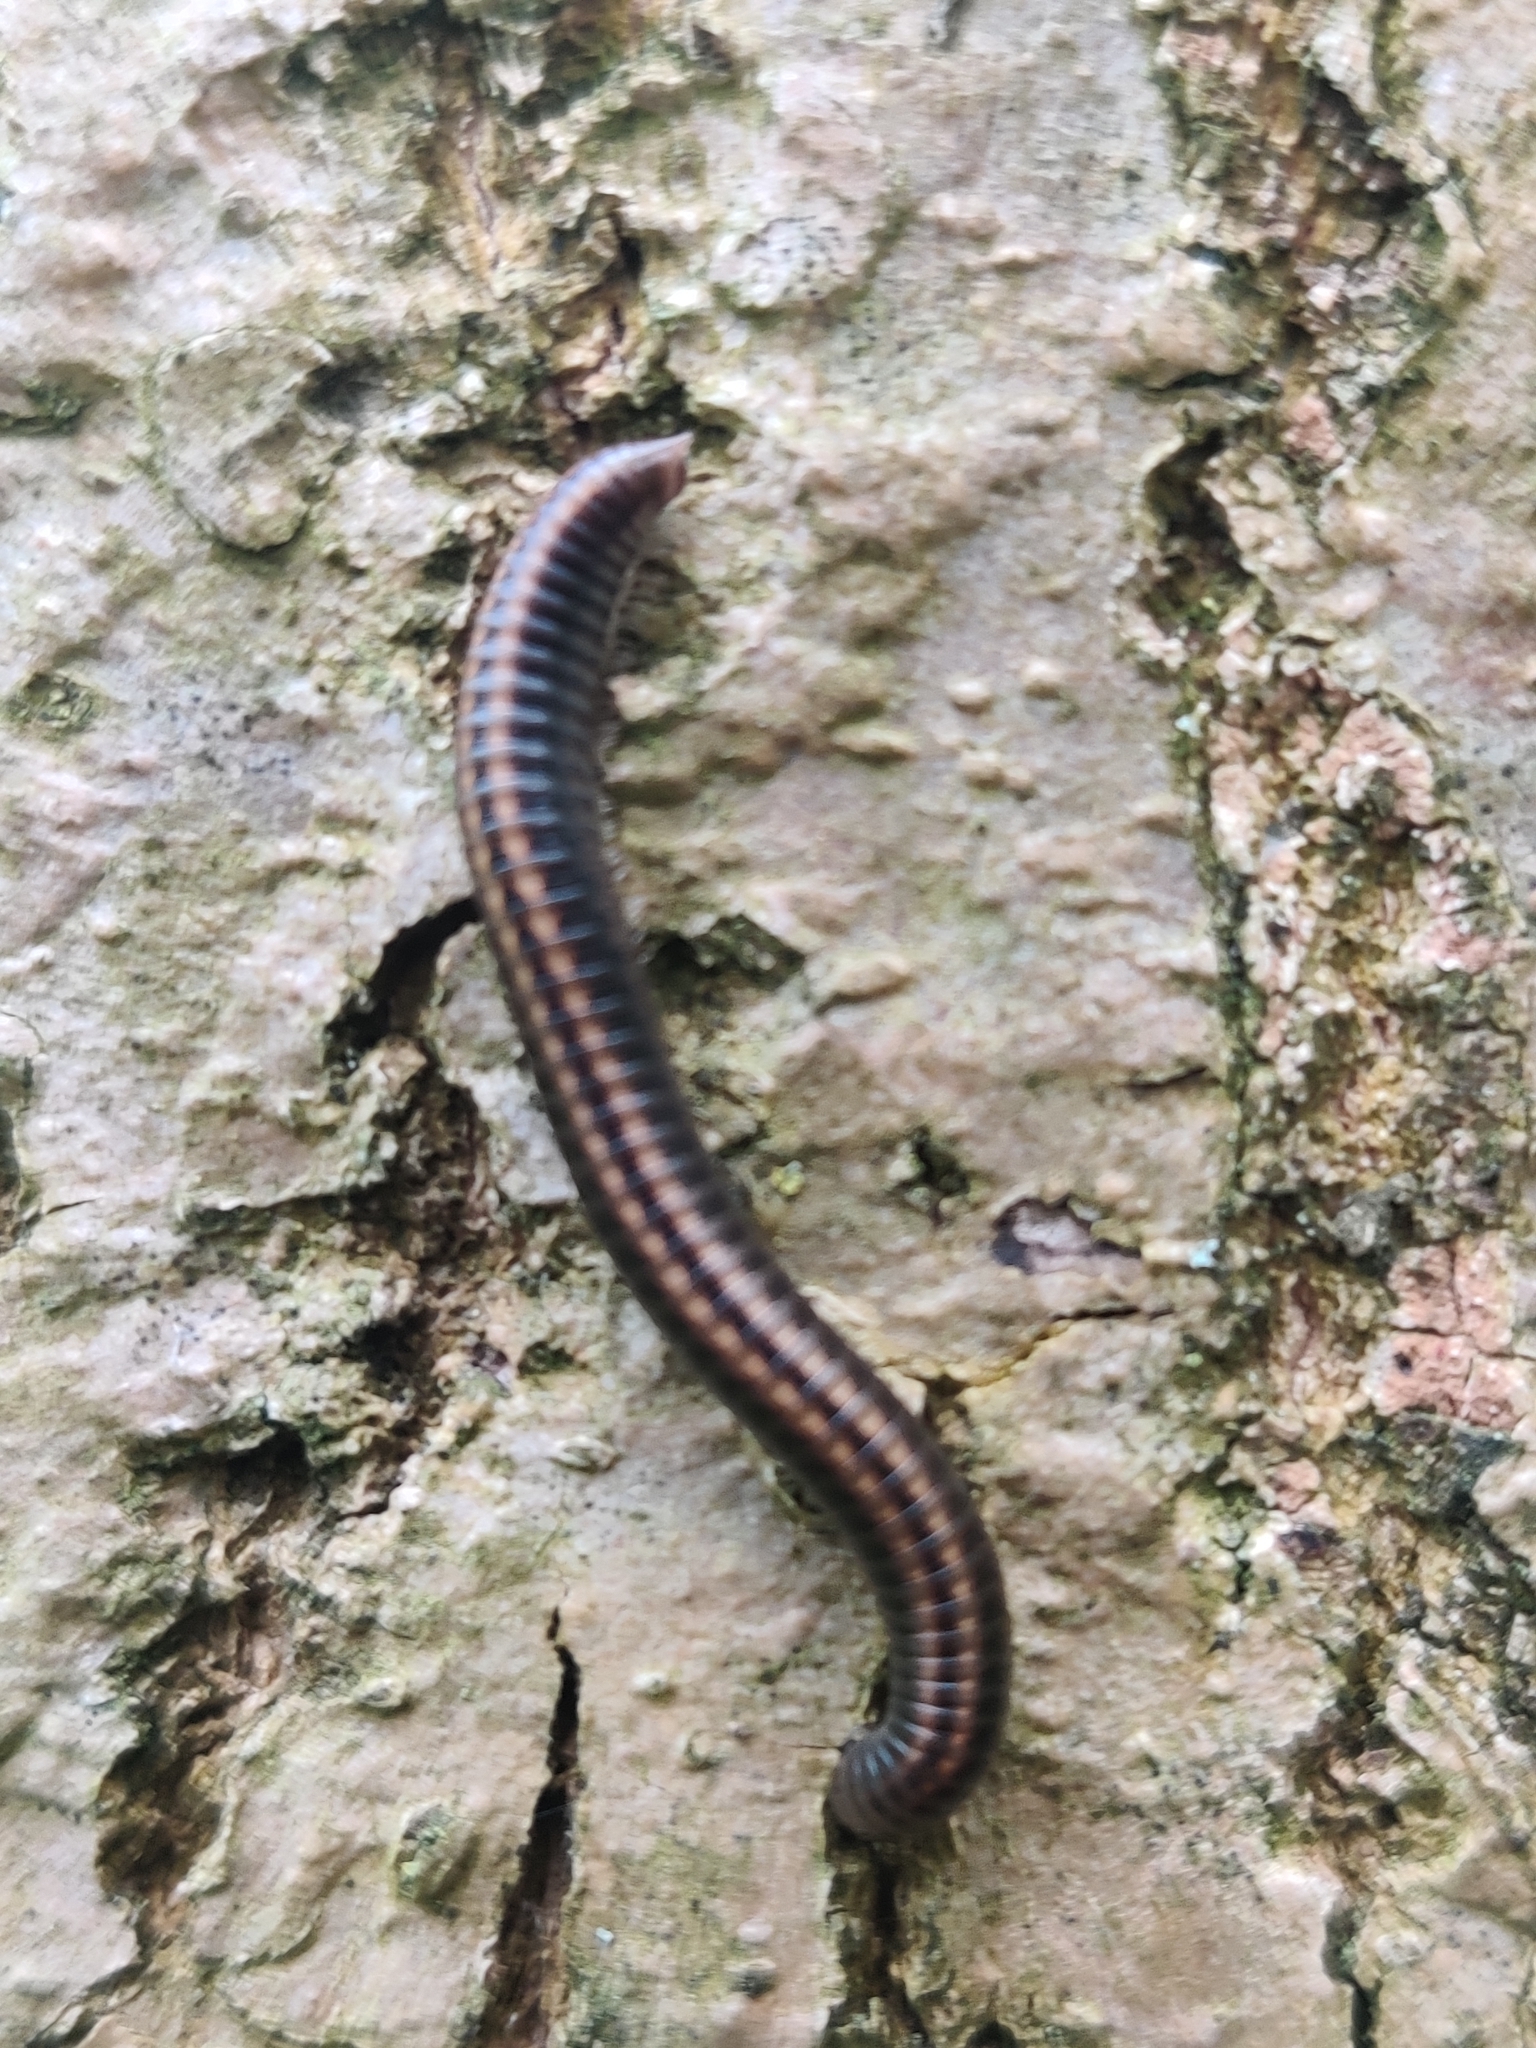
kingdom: Animalia
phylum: Arthropoda
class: Diplopoda
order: Julida
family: Julidae
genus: Ommatoiulus
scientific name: Ommatoiulus sabulosus
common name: Striped millipede
